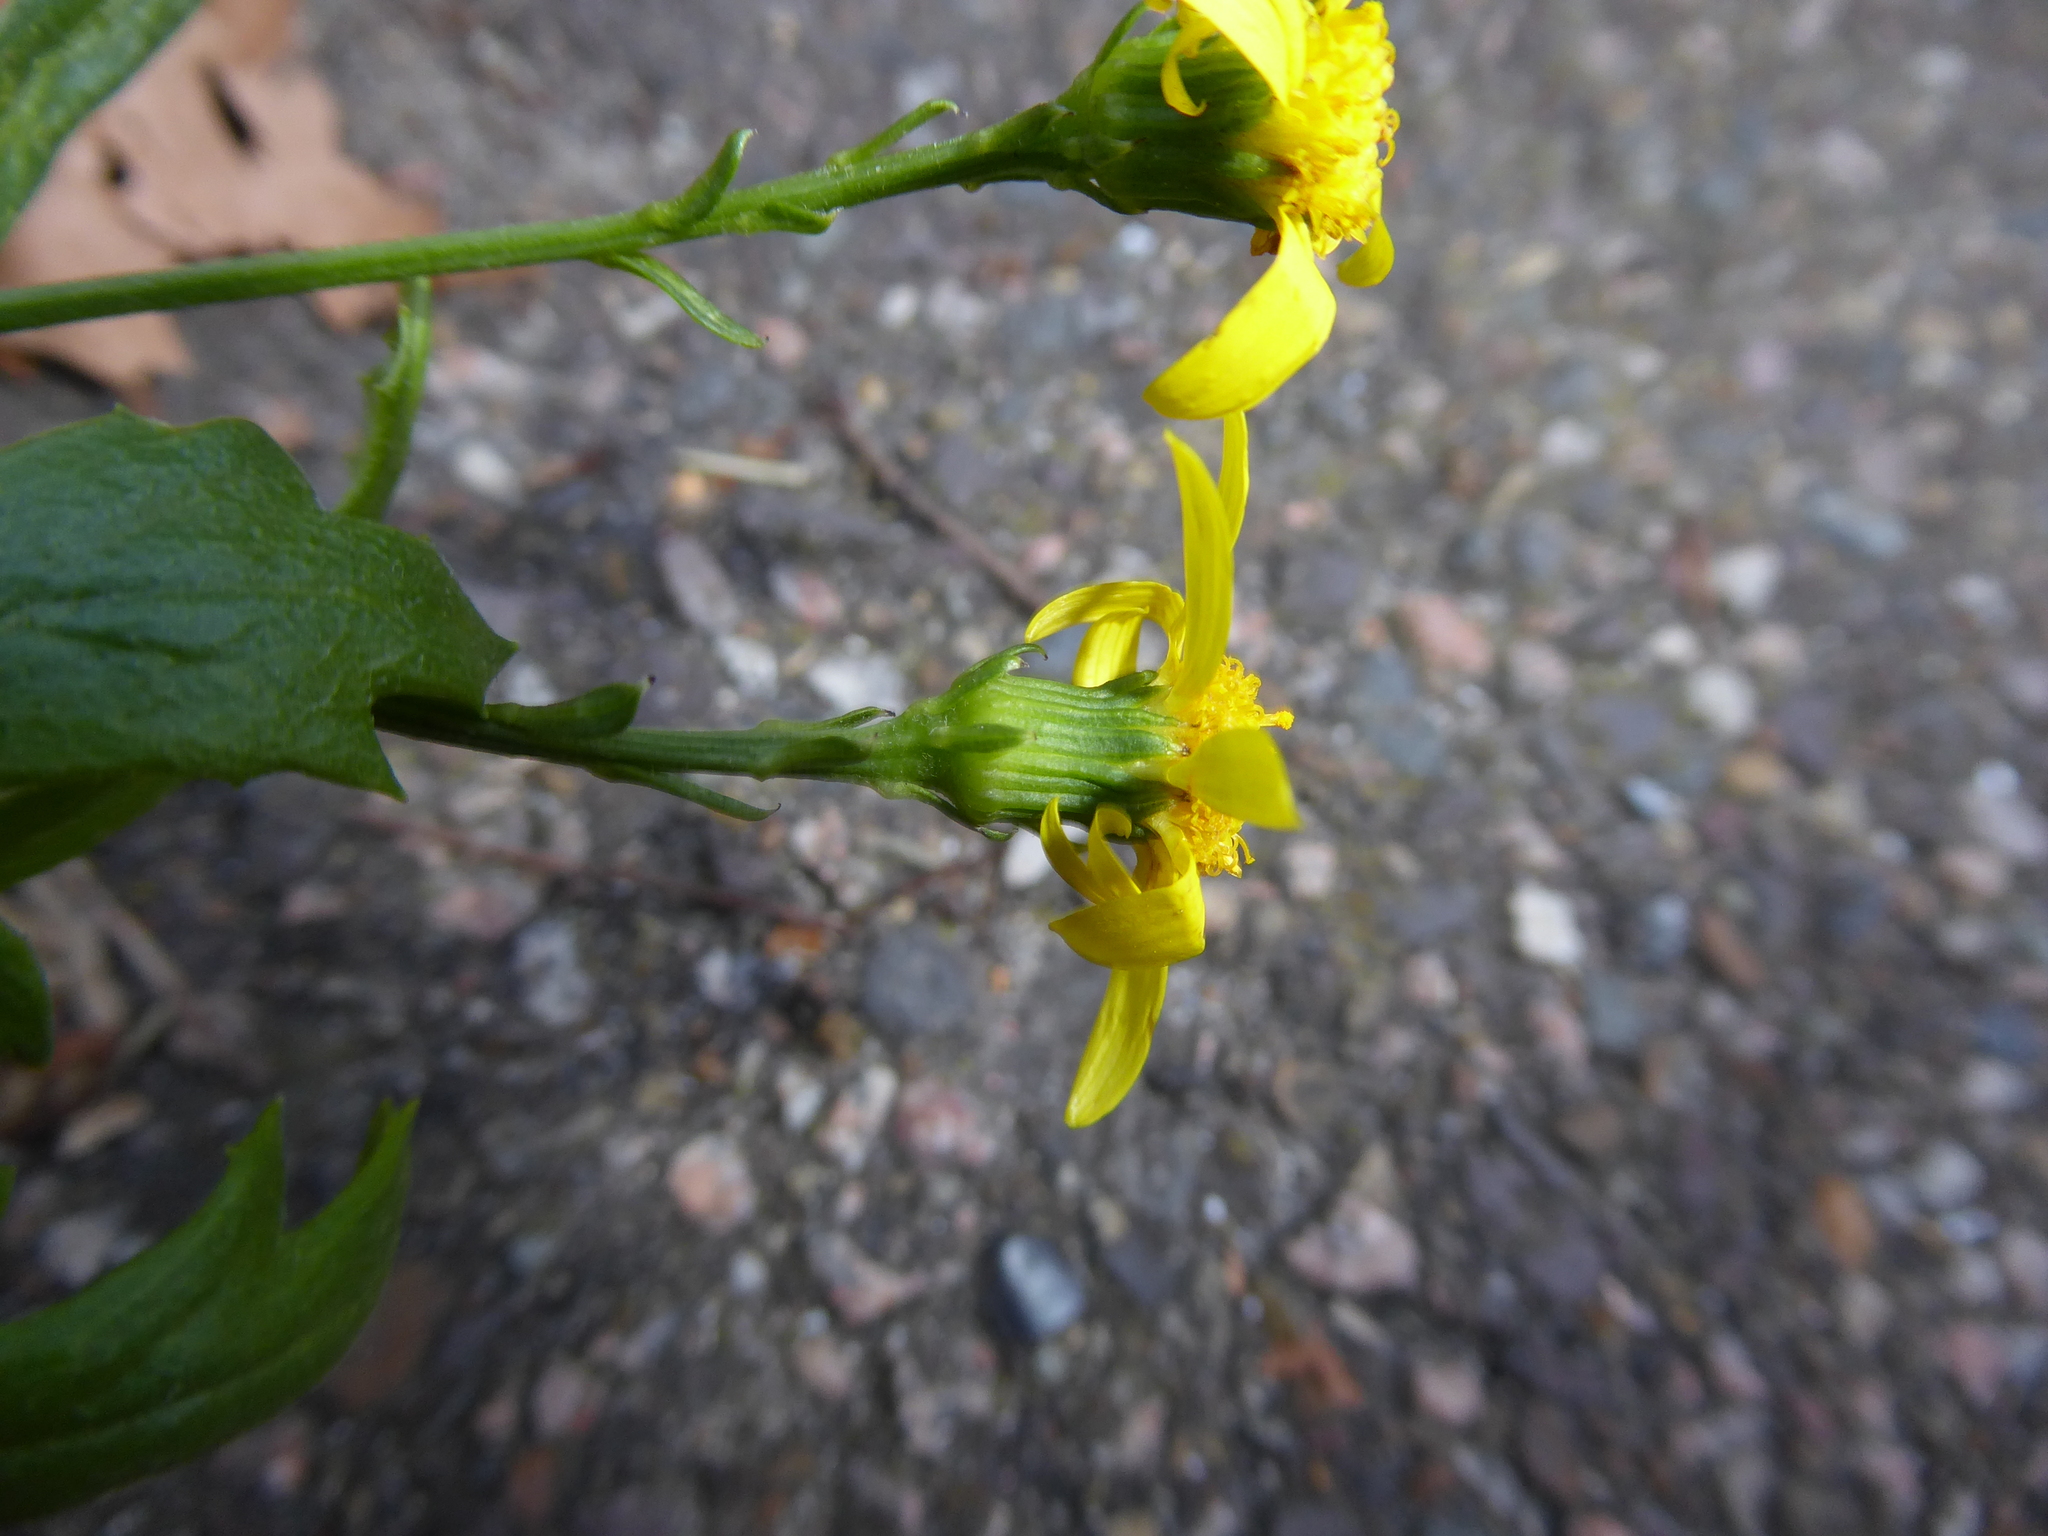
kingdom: Plantae
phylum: Tracheophyta
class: Magnoliopsida
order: Asterales
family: Asteraceae
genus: Senecio
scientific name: Senecio squalidus
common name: Oxford ragwort
